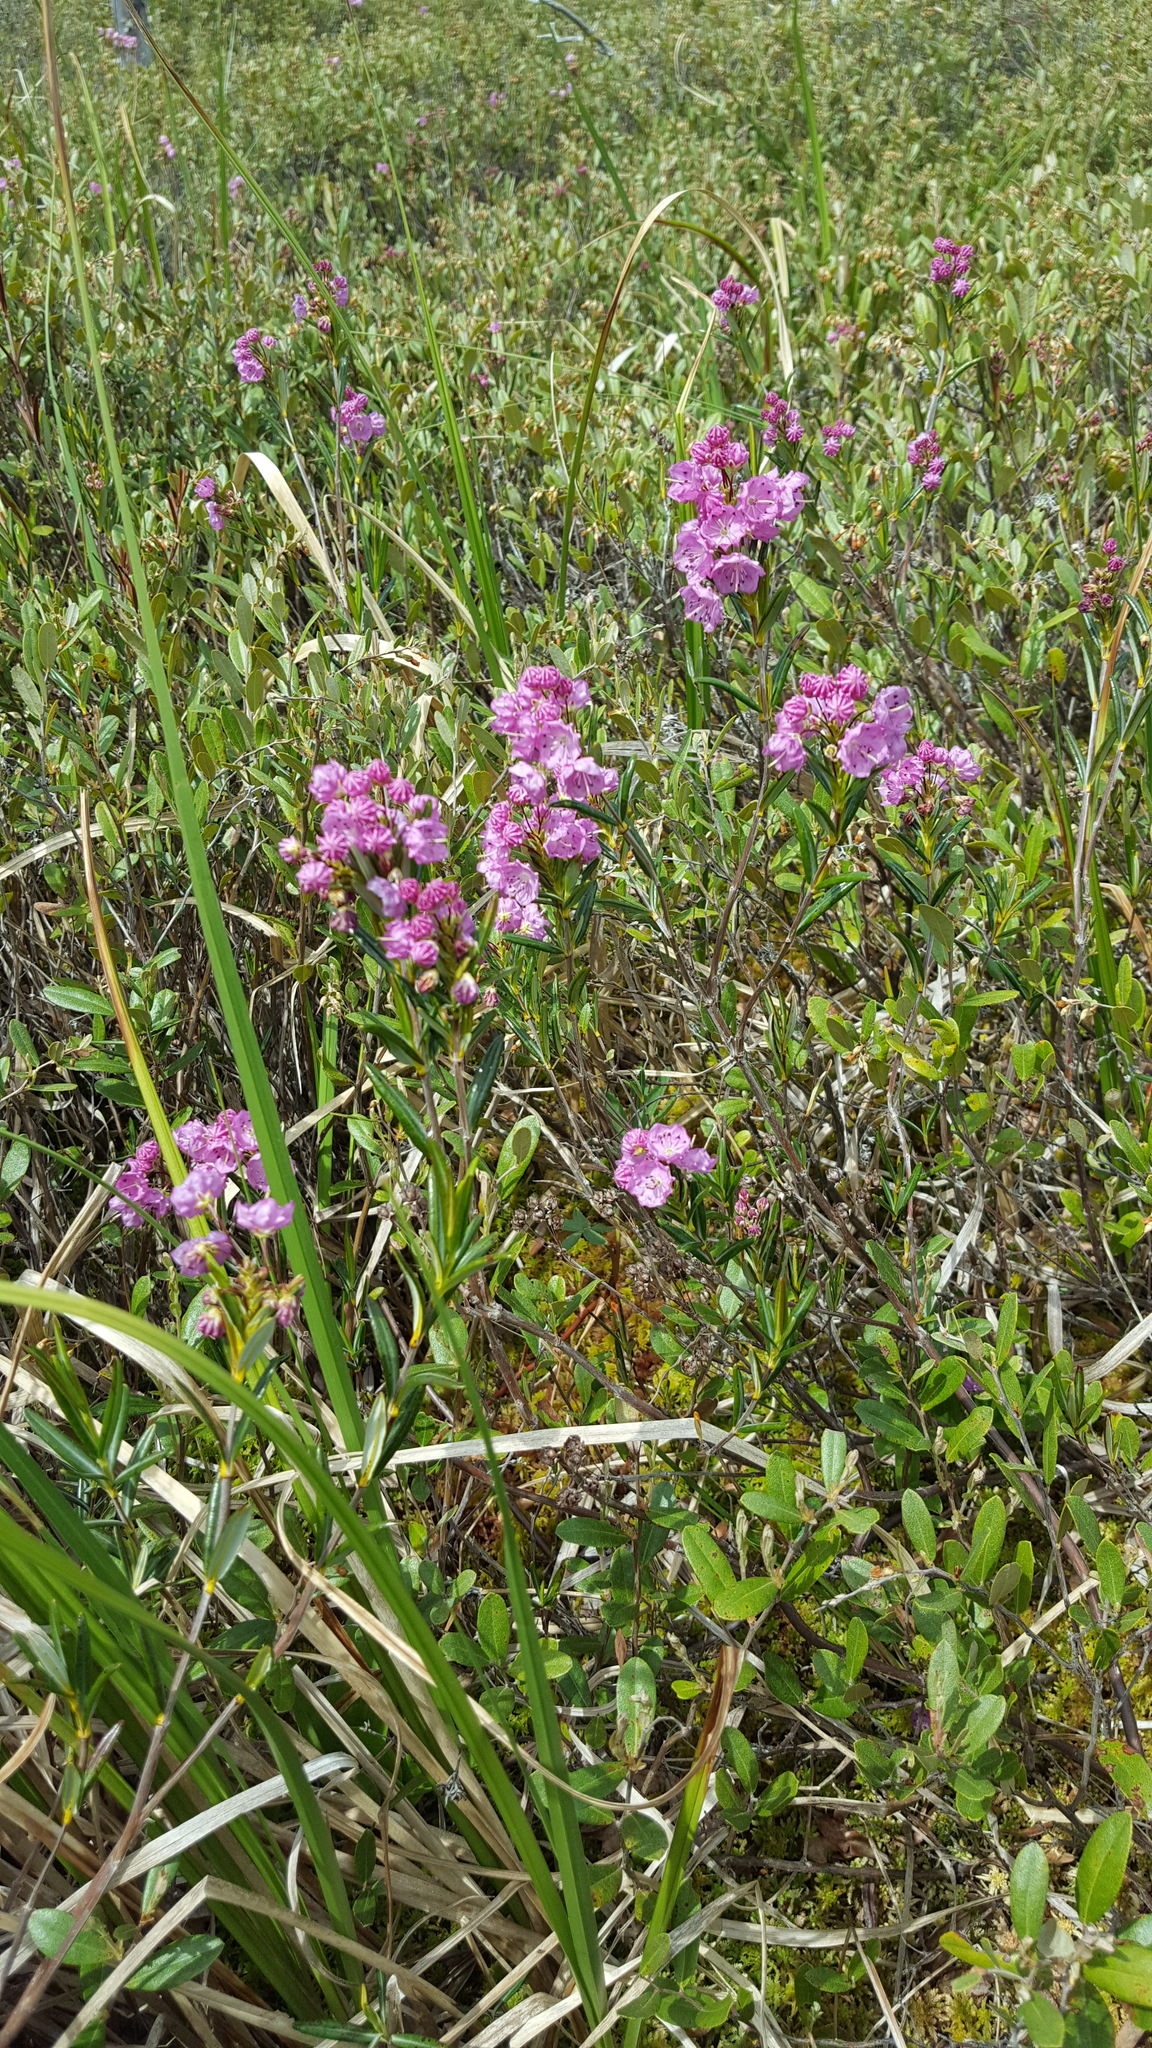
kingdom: Plantae
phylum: Tracheophyta
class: Magnoliopsida
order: Ericales
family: Ericaceae
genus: Kalmia
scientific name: Kalmia polifolia
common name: Bog-laurel
